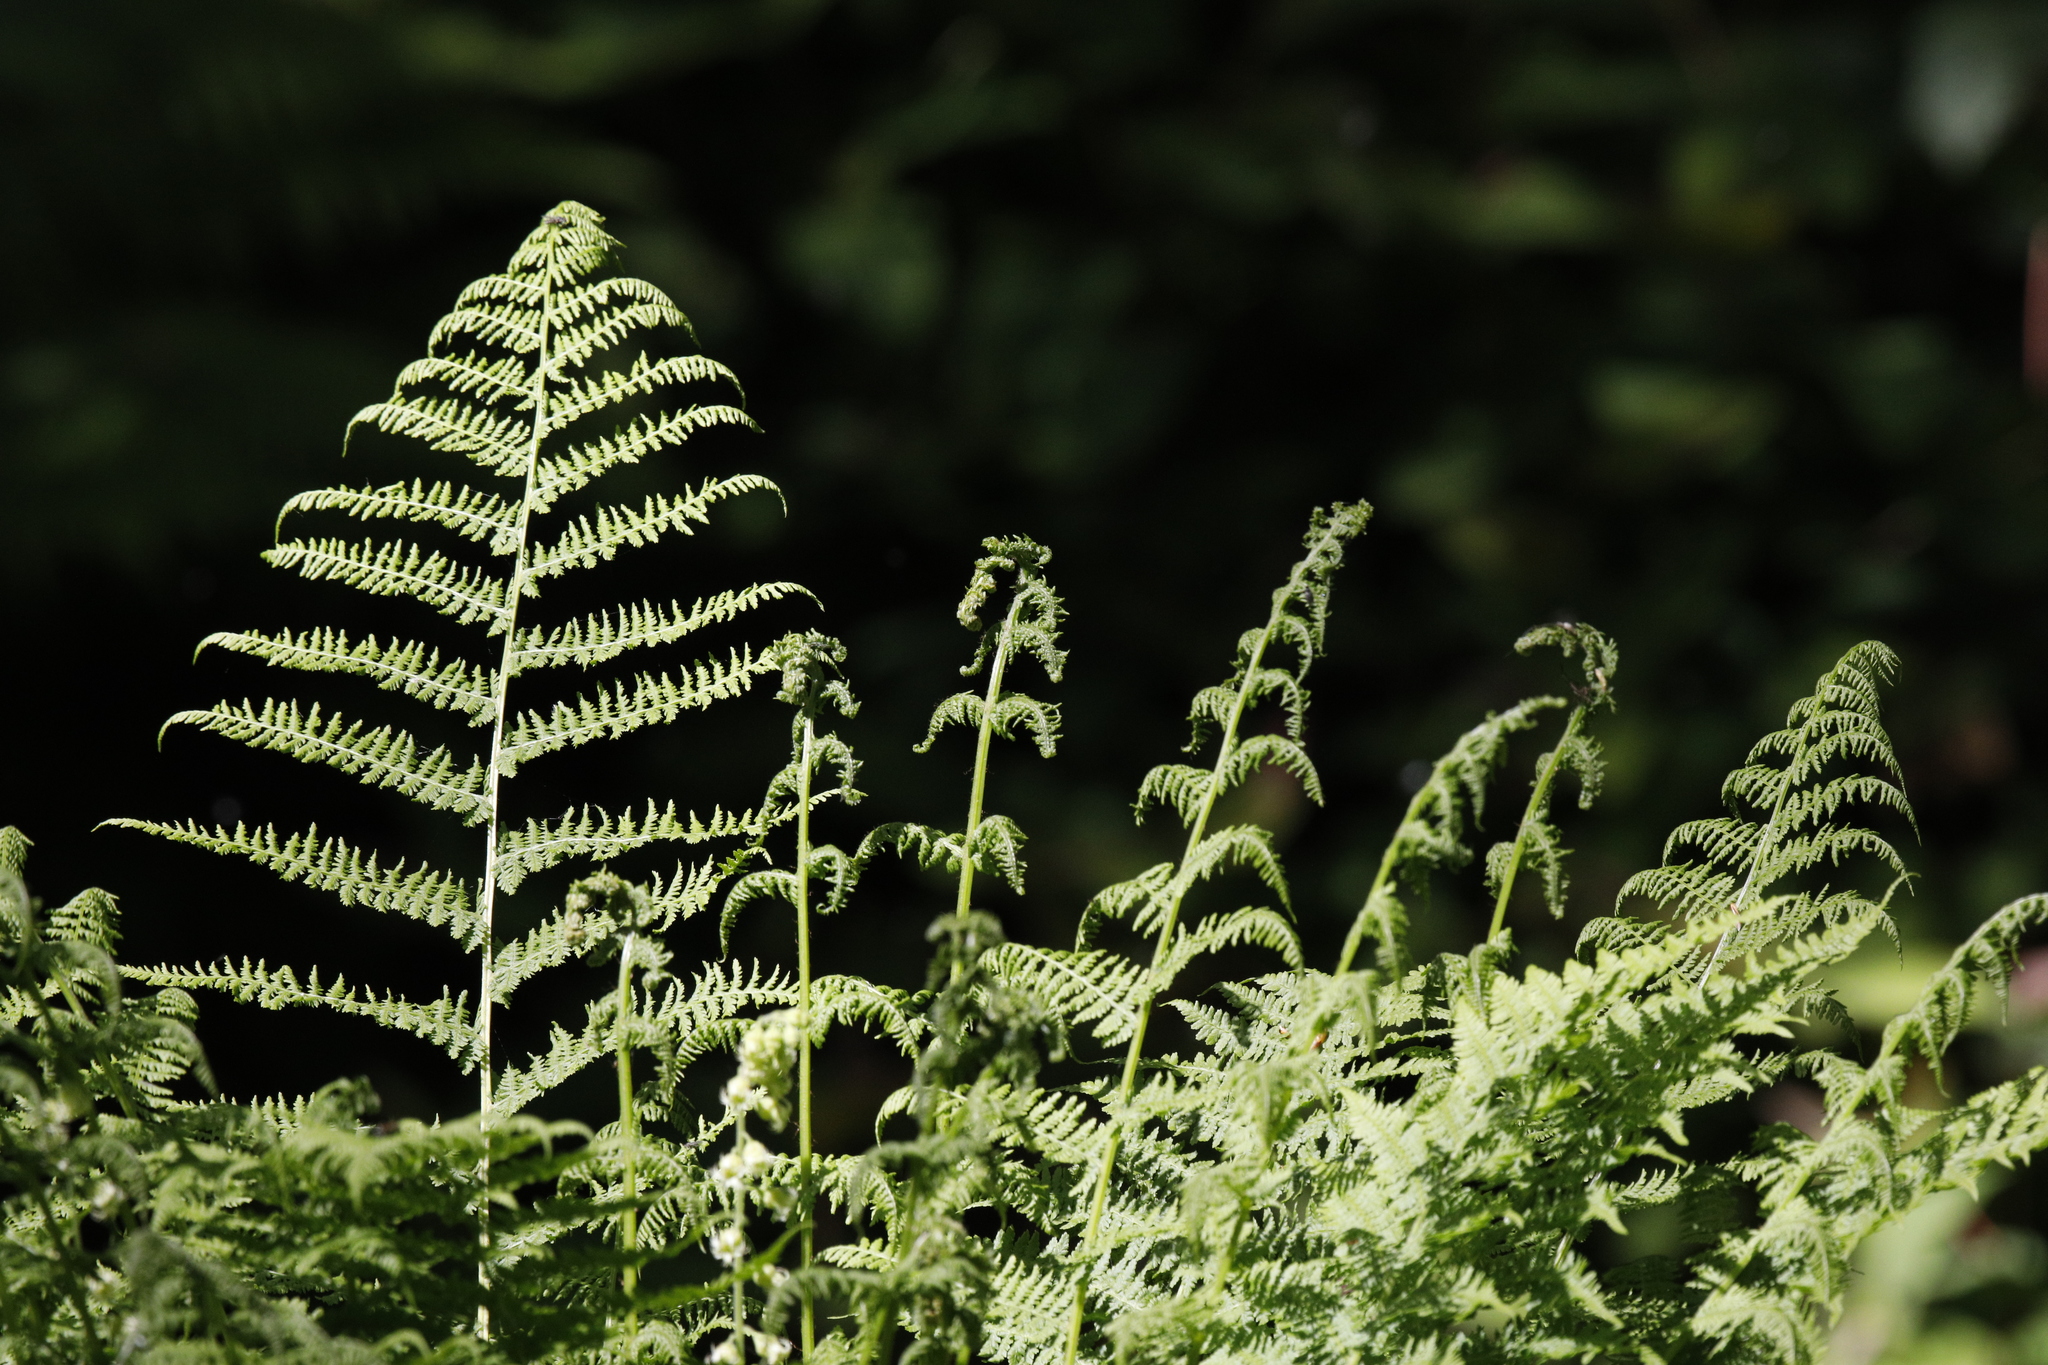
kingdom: Plantae
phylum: Tracheophyta
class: Polypodiopsida
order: Polypodiales
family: Athyriaceae
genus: Athyrium
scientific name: Athyrium filix-femina
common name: Lady fern
